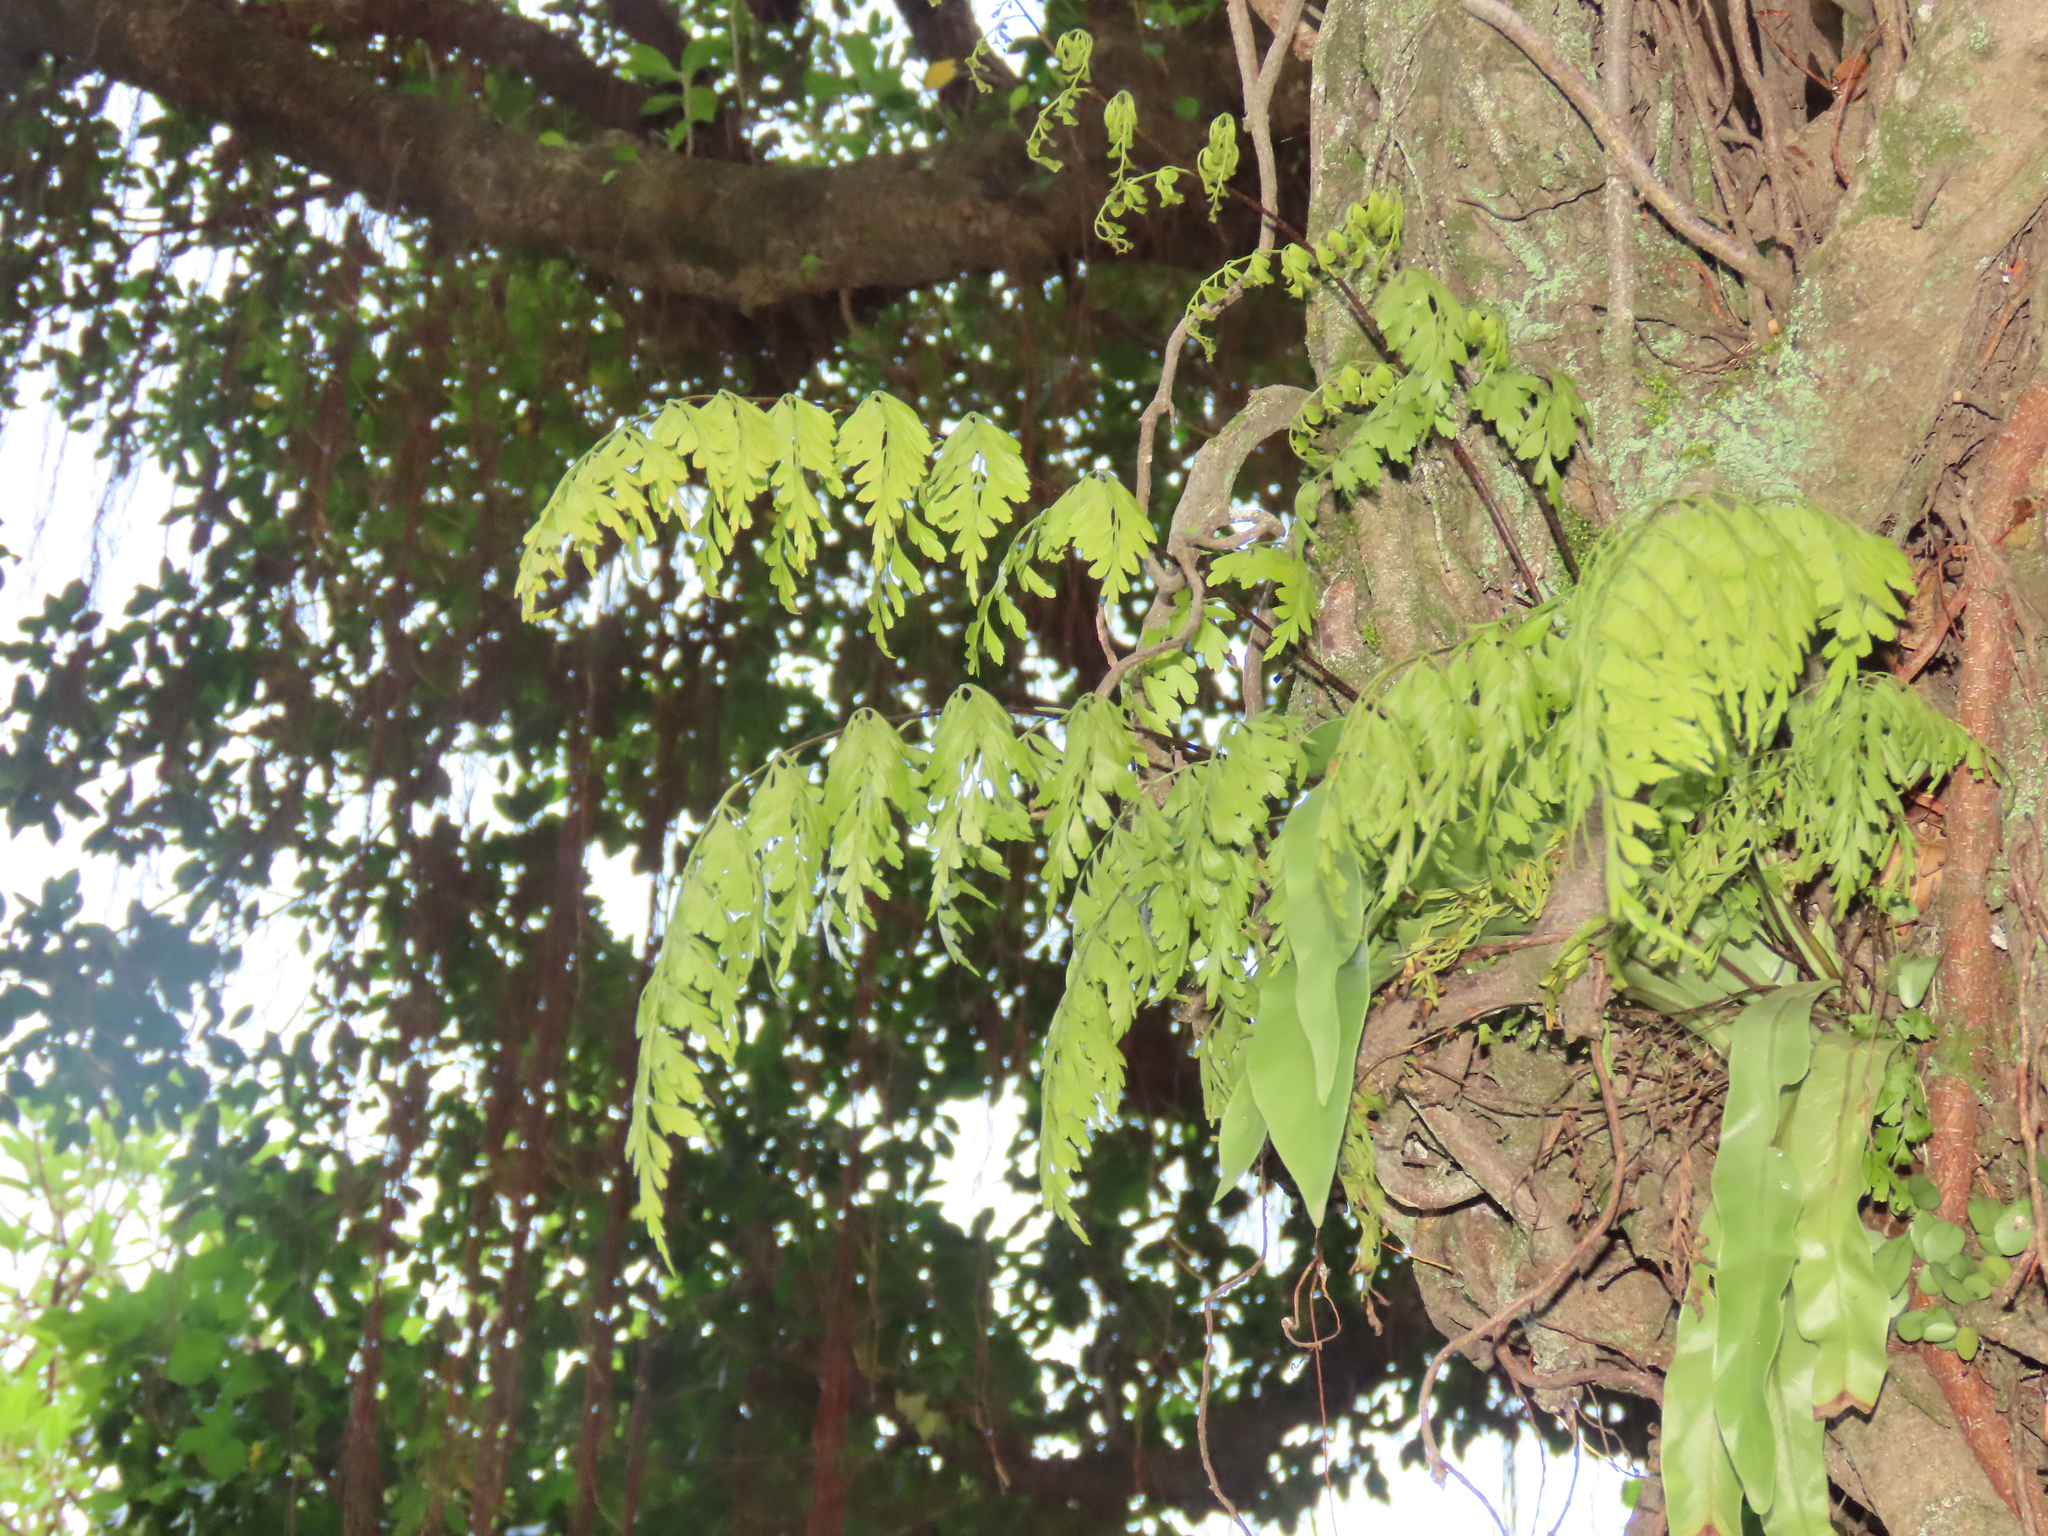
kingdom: Plantae
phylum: Tracheophyta
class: Polypodiopsida
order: Polypodiales
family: Aspleniaceae
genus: Asplenium
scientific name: Asplenium pseudolaserpitiifolium
